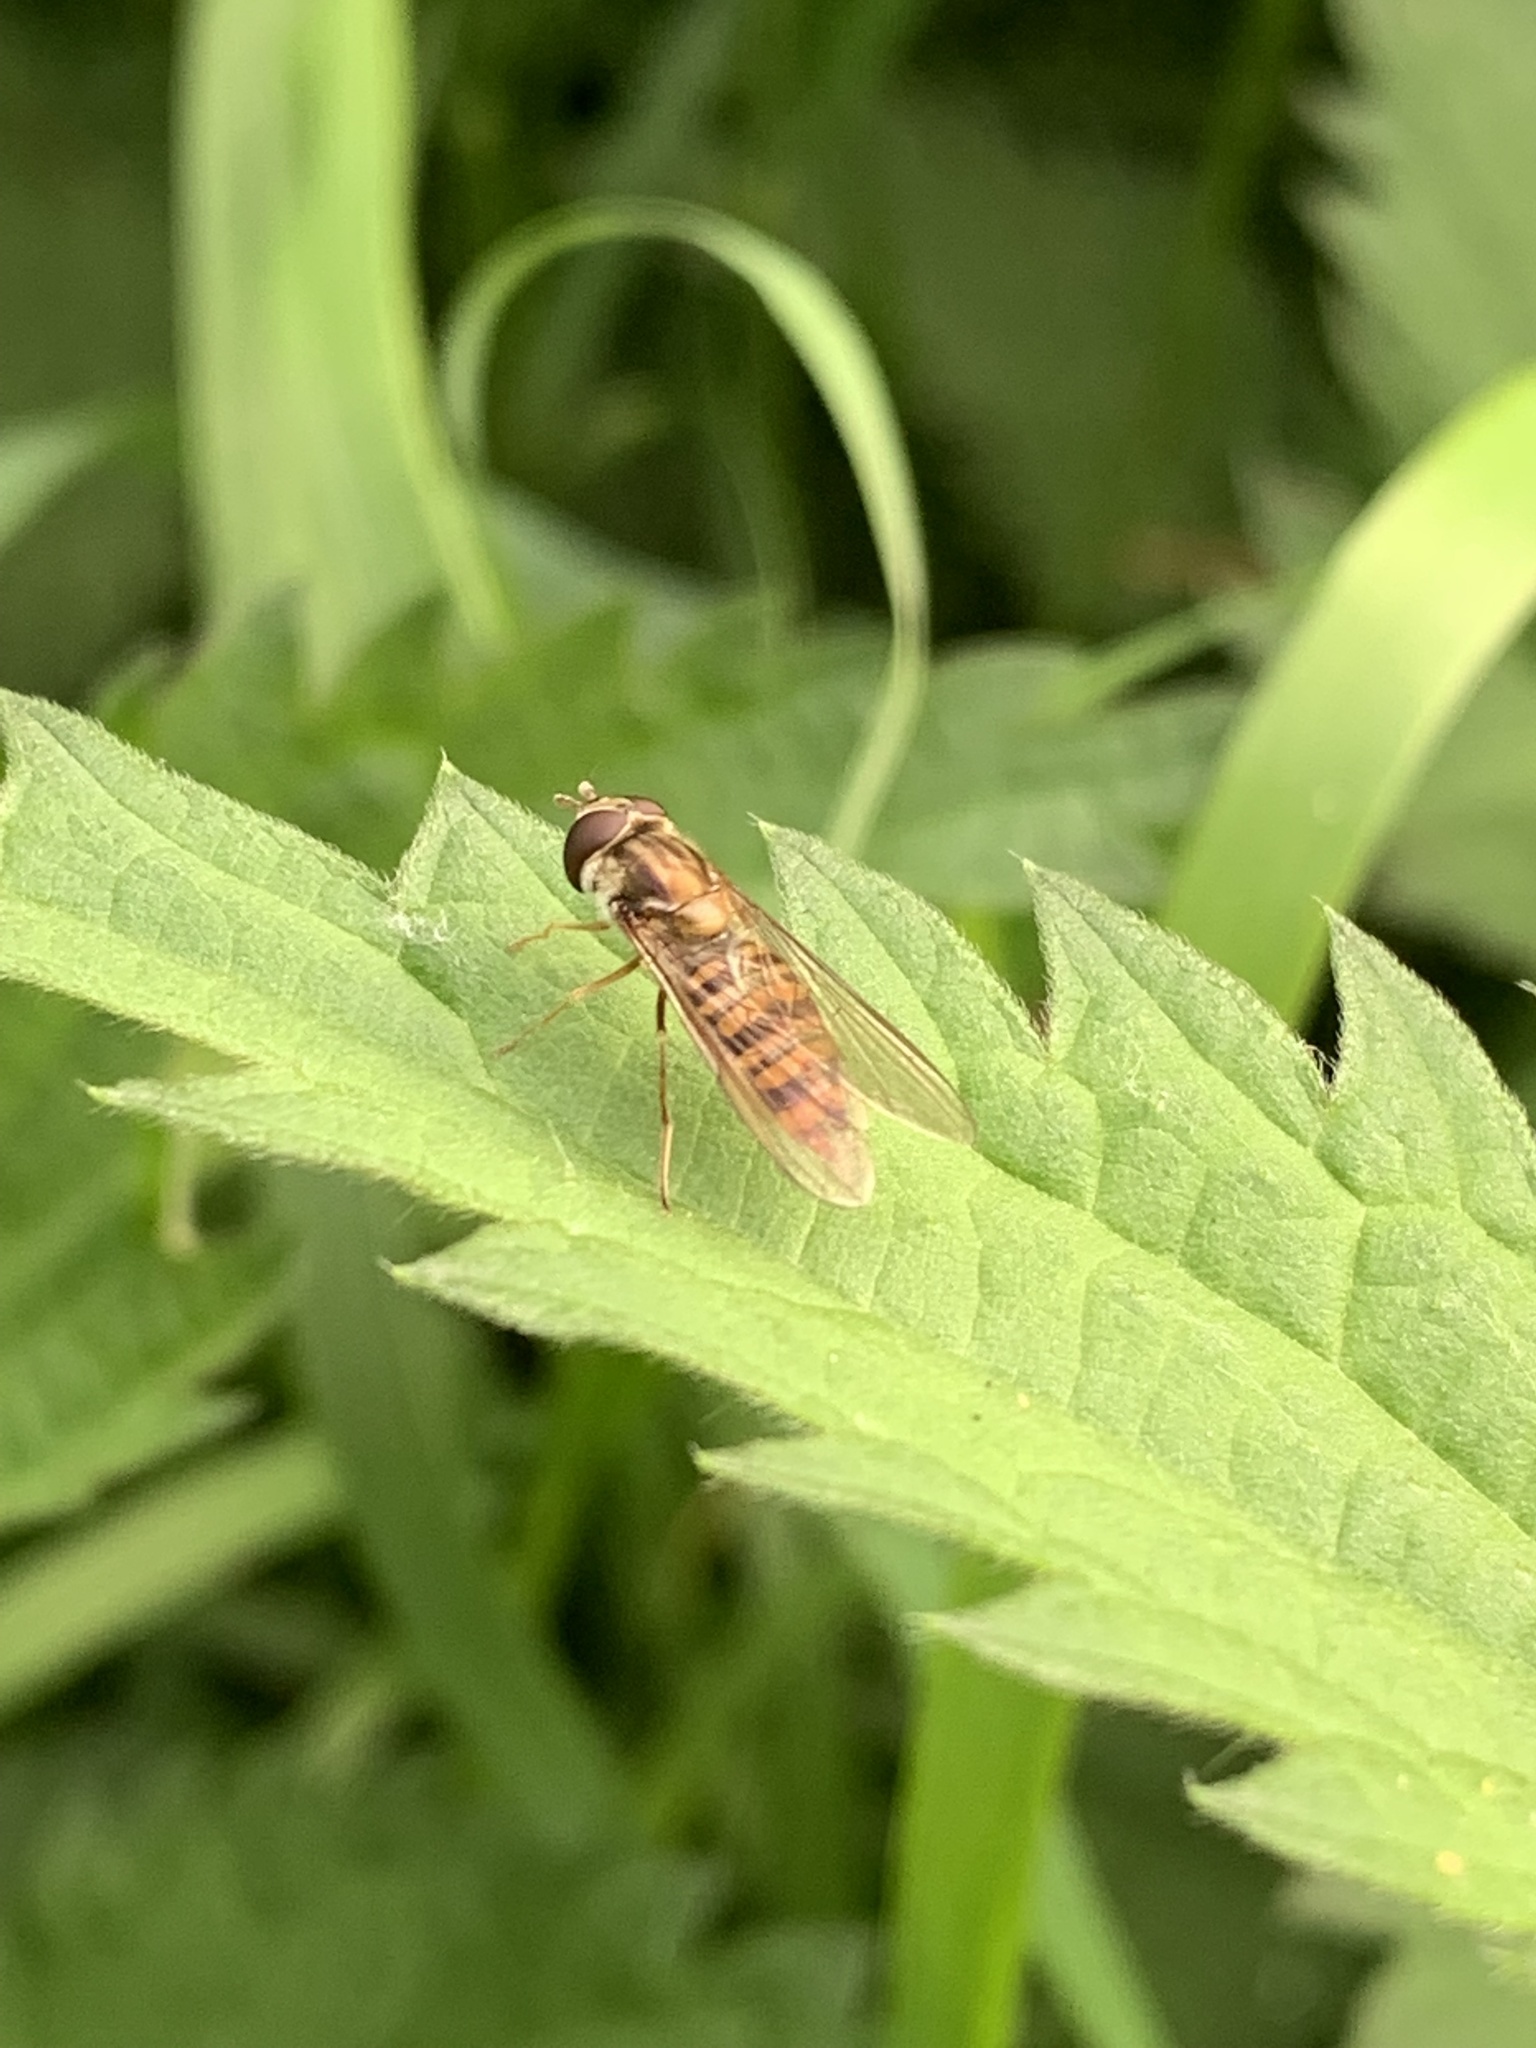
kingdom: Animalia
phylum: Arthropoda
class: Insecta
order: Diptera
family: Syrphidae
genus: Episyrphus
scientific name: Episyrphus balteatus
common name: Marmalade hoverfly
